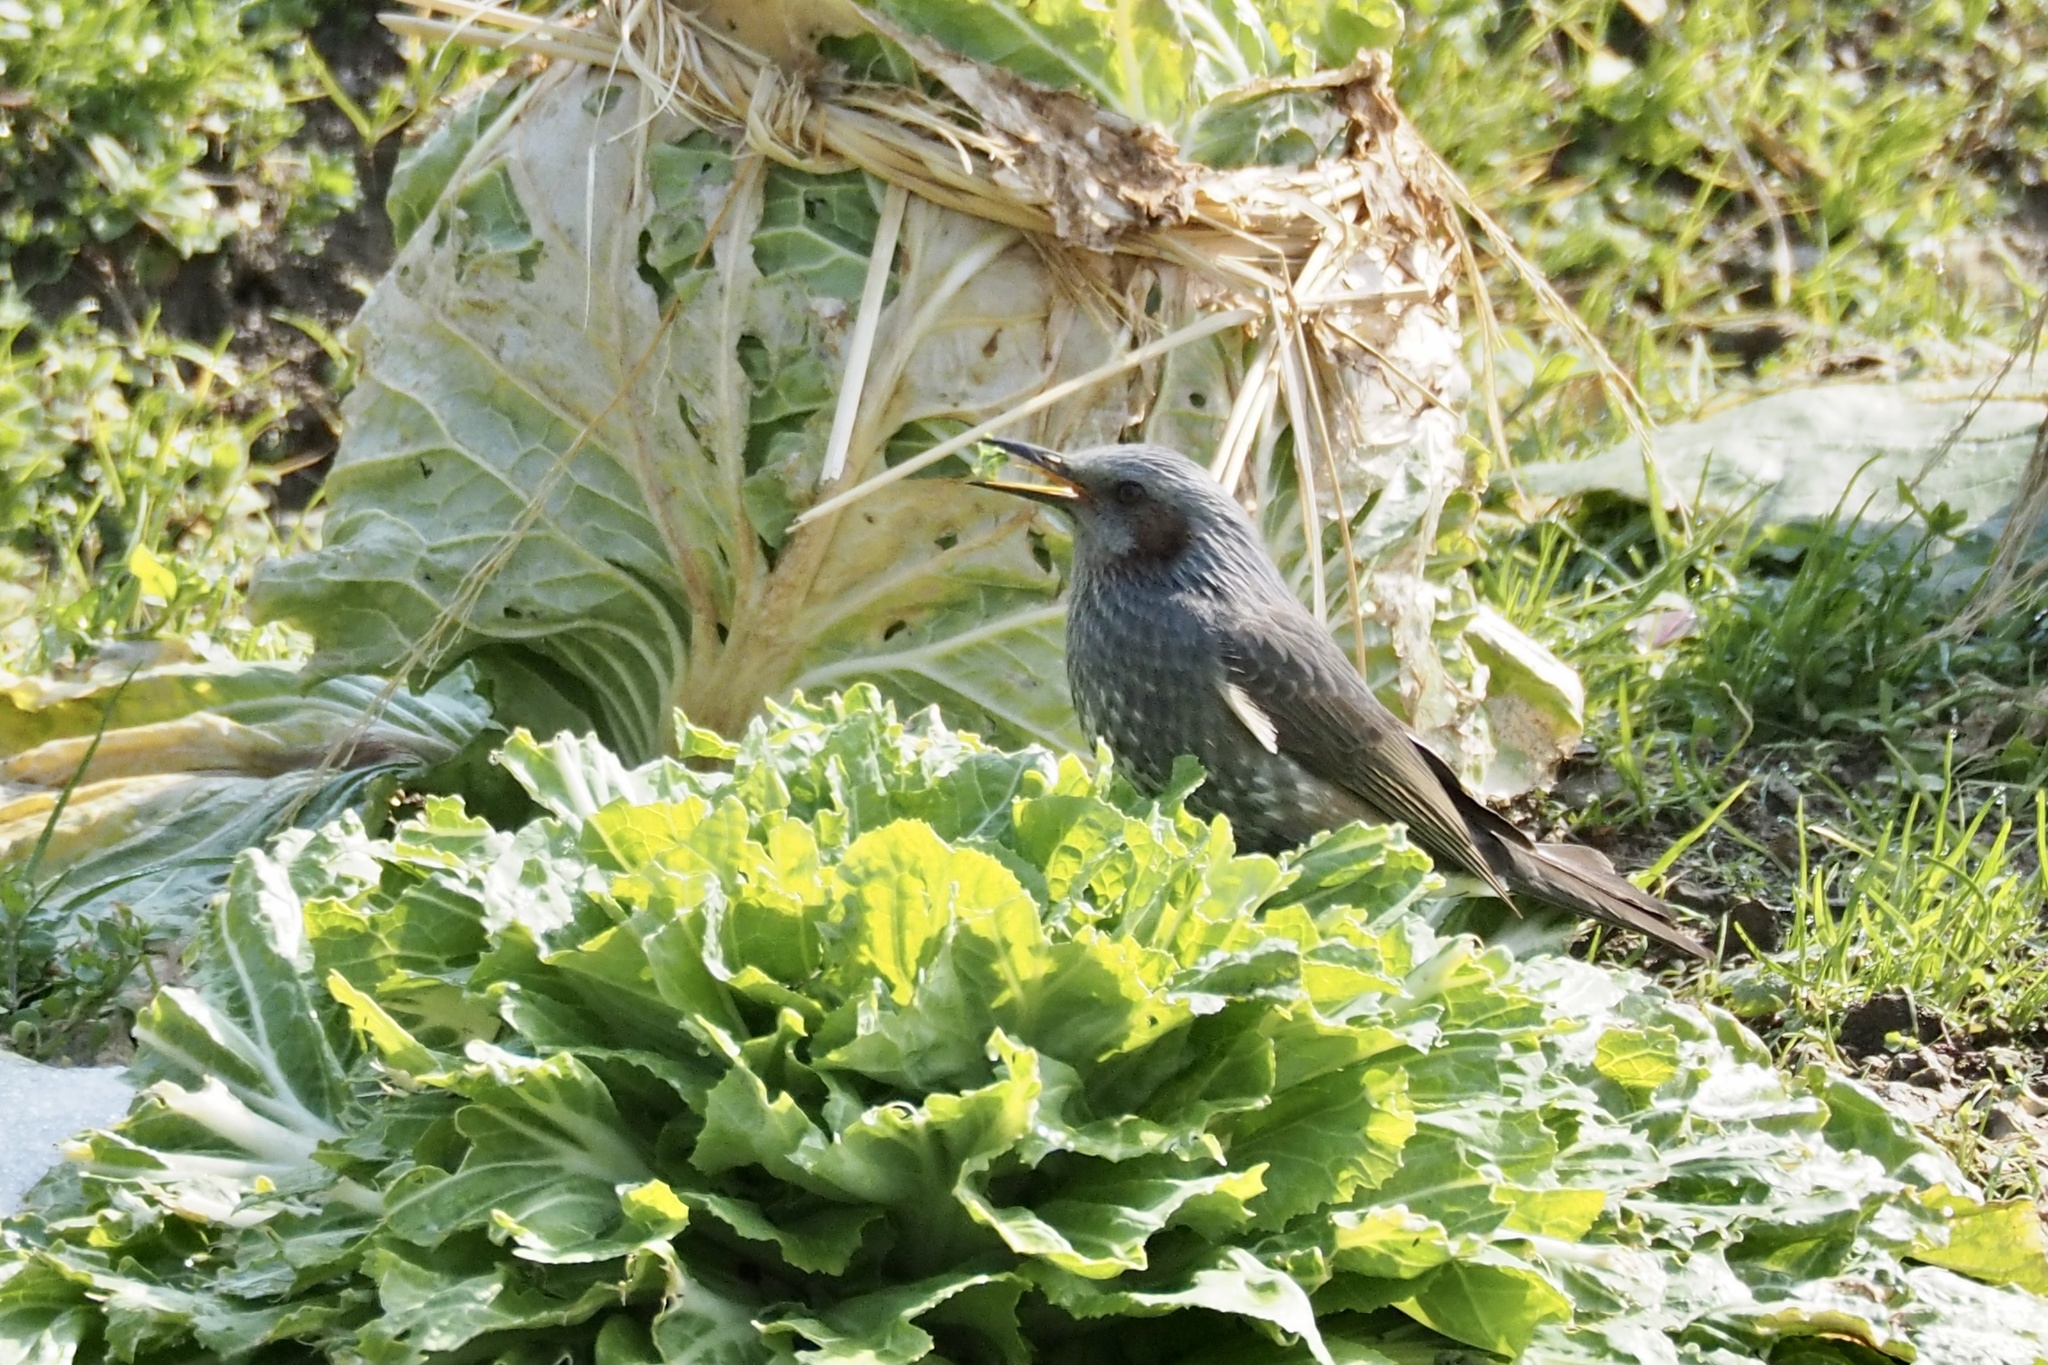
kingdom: Animalia
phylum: Chordata
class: Aves
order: Passeriformes
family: Pycnonotidae
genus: Hypsipetes
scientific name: Hypsipetes amaurotis
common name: Brown-eared bulbul
